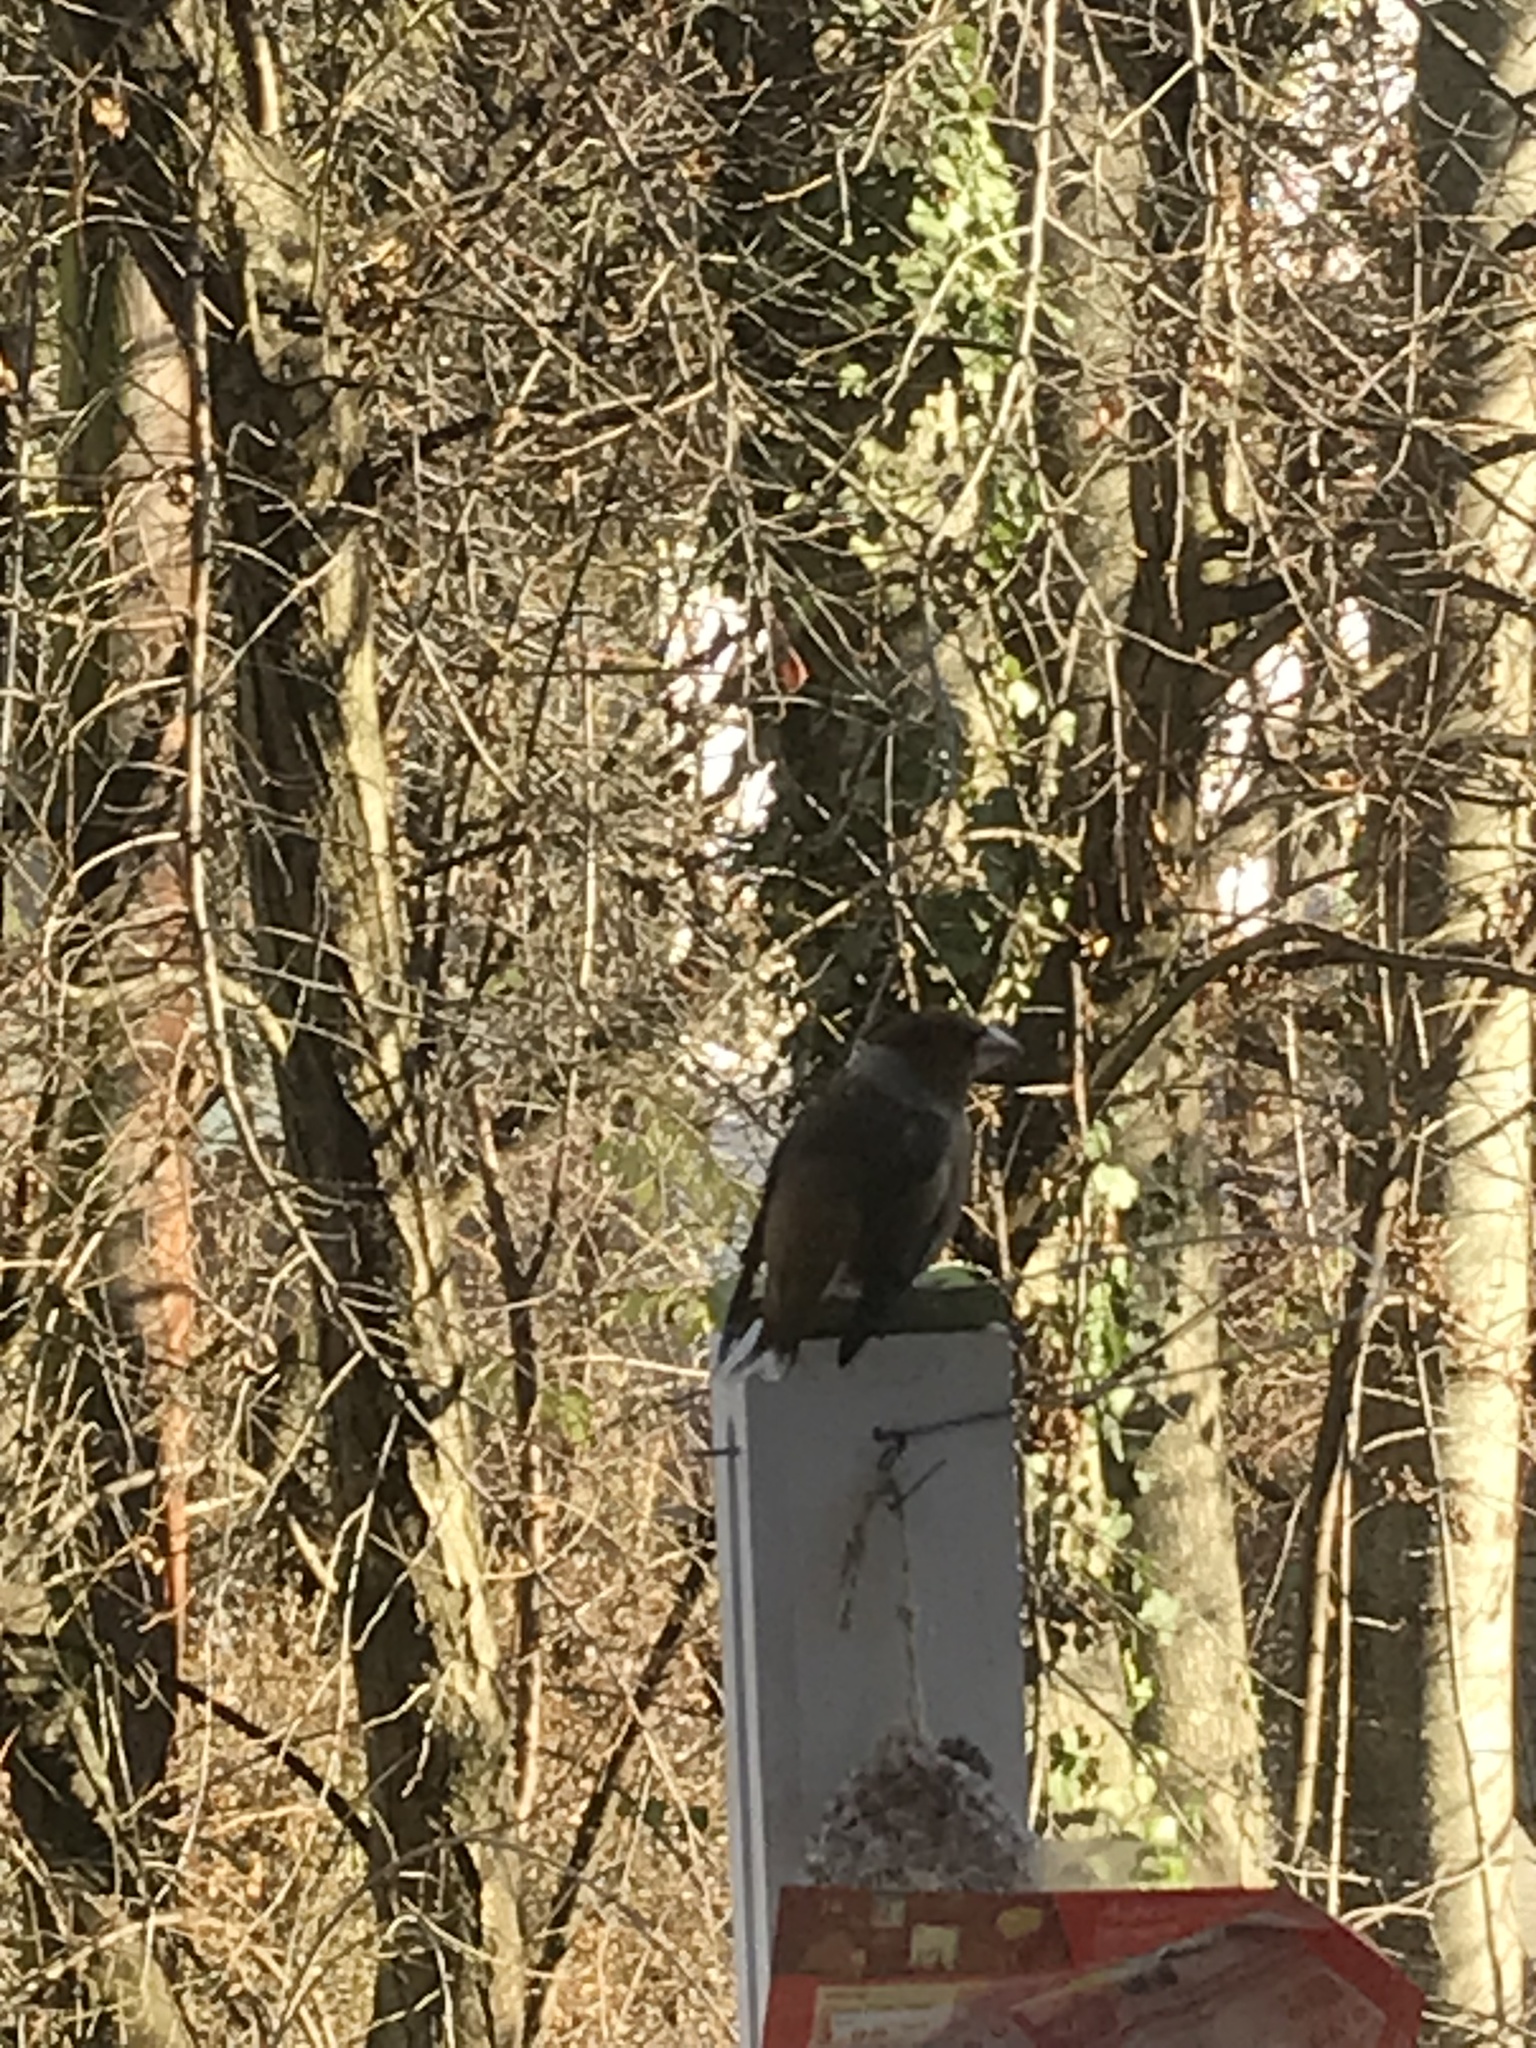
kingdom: Animalia
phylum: Chordata
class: Aves
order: Passeriformes
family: Fringillidae
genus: Coccothraustes
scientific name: Coccothraustes coccothraustes
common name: Hawfinch
